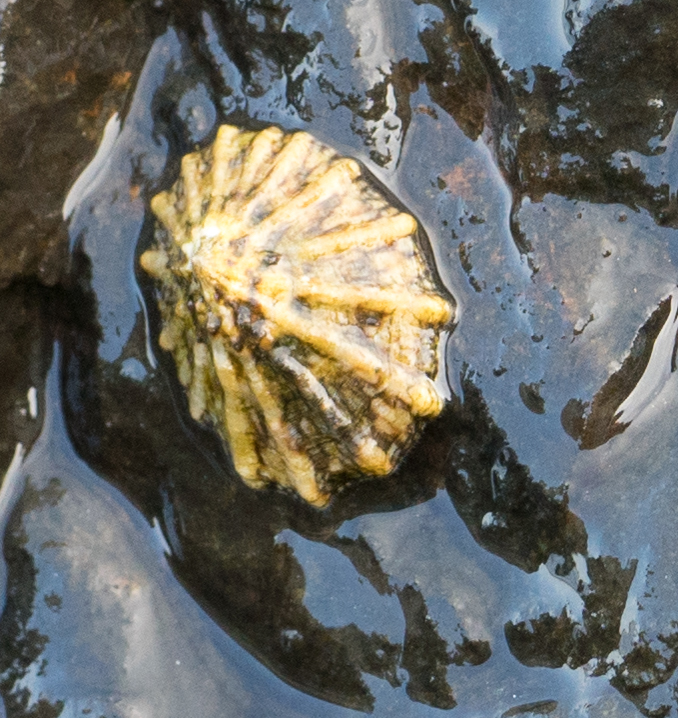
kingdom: Animalia
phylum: Mollusca
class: Gastropoda
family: Lottiidae
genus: Lottia
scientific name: Lottia scabra
